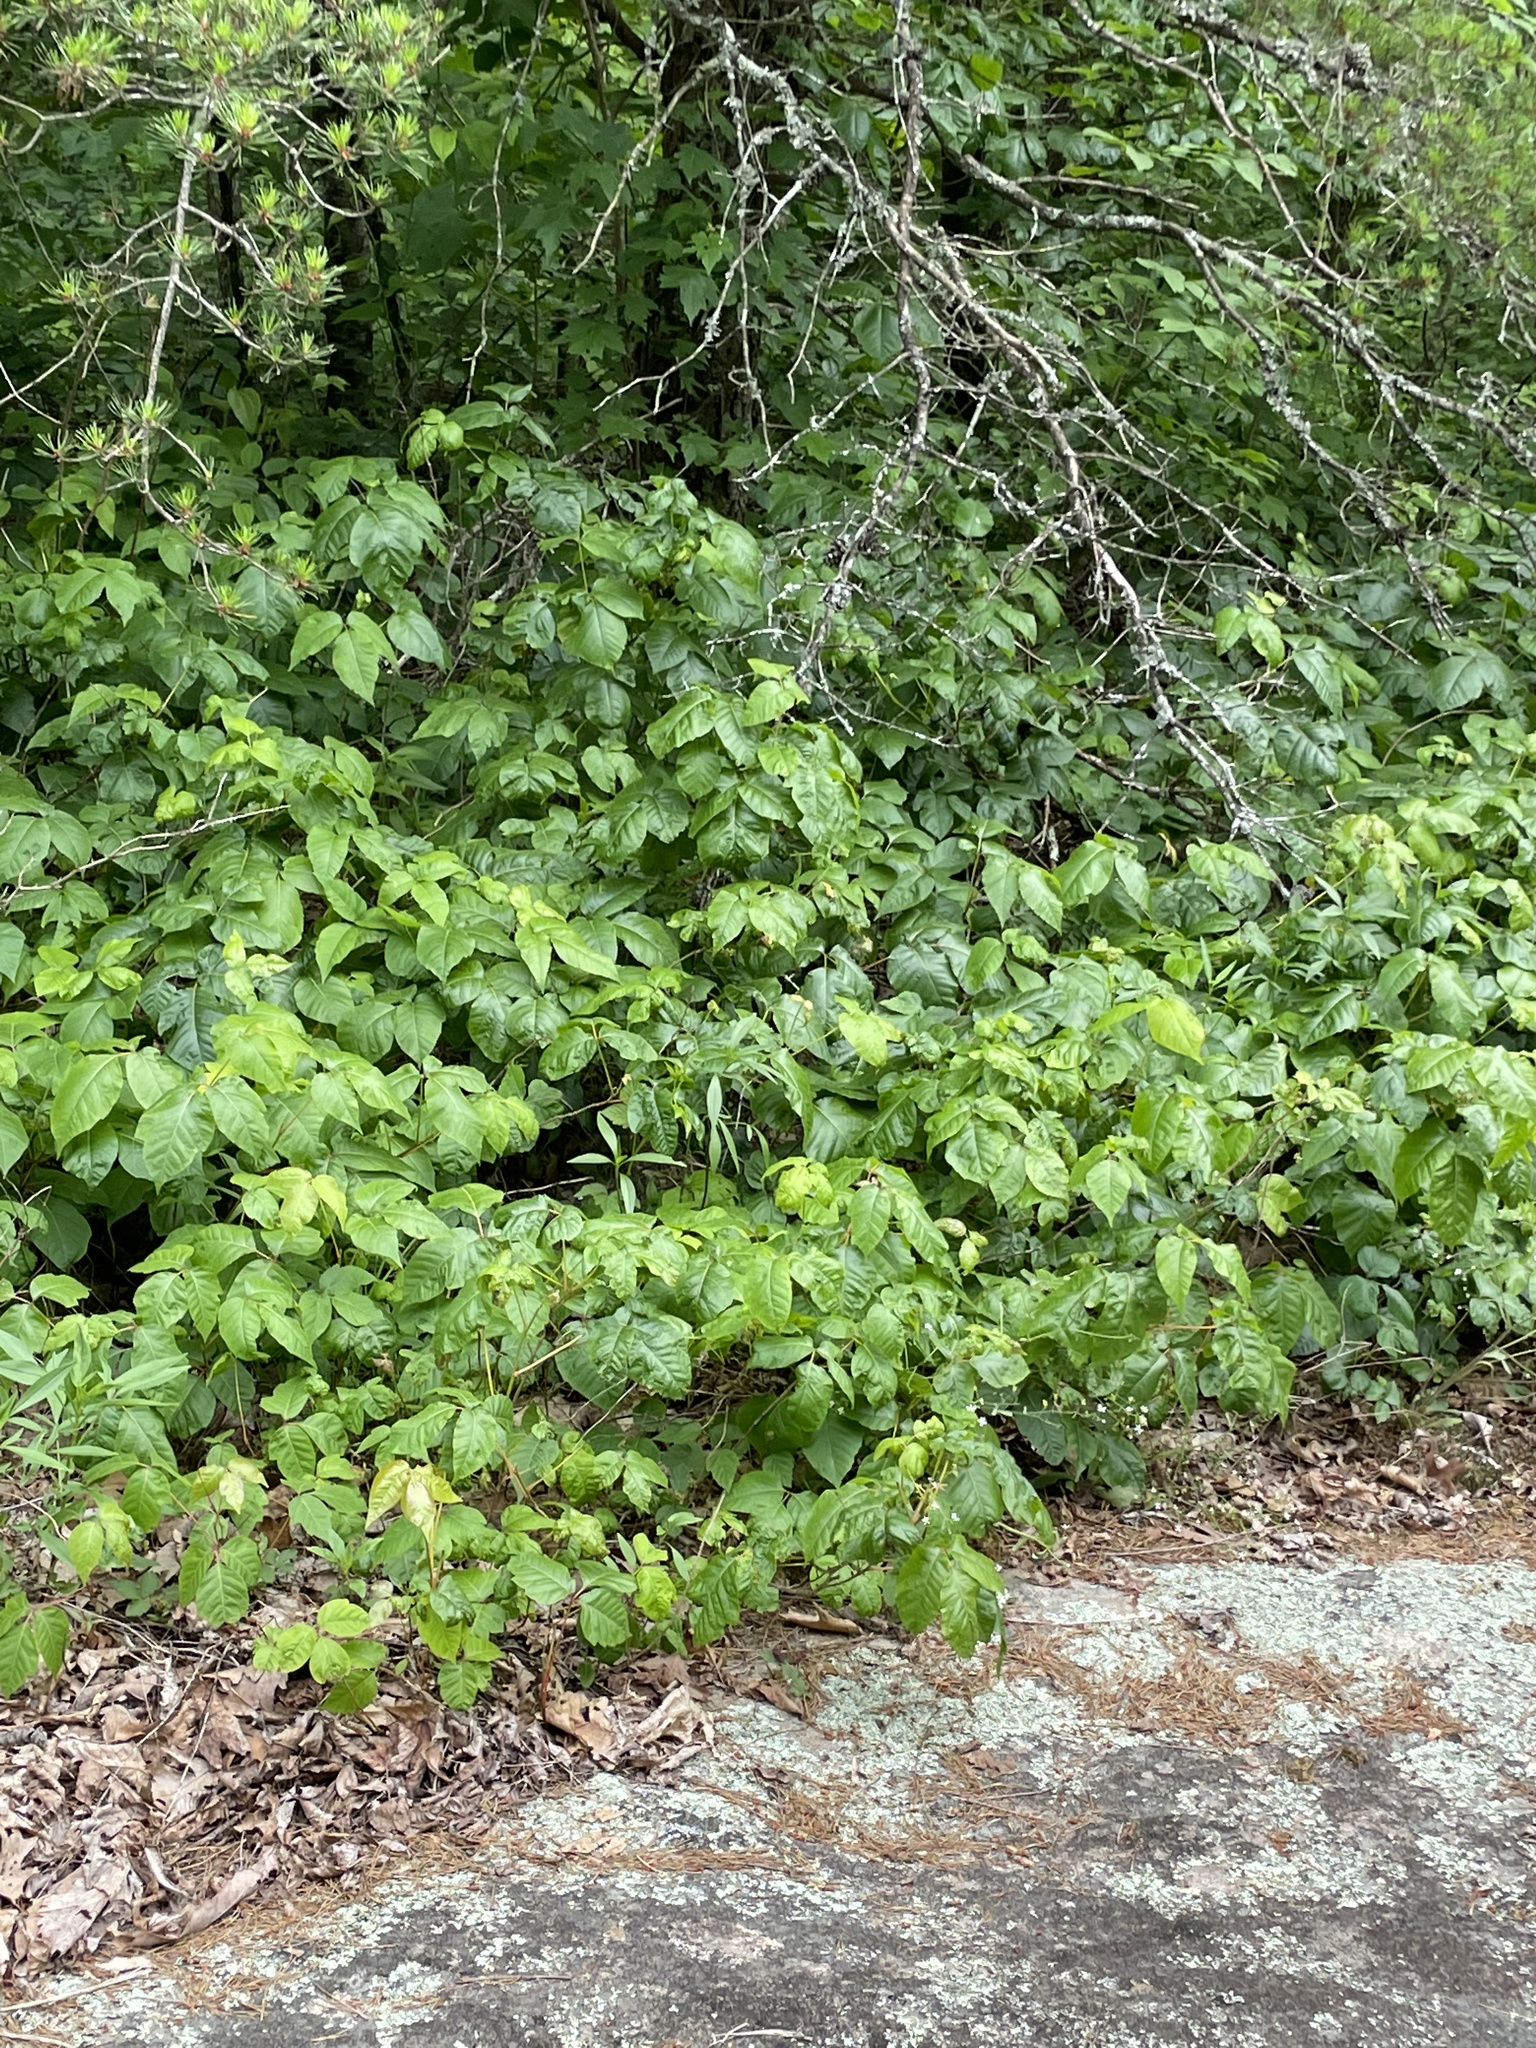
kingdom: Plantae
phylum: Tracheophyta
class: Magnoliopsida
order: Sapindales
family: Anacardiaceae
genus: Toxicodendron
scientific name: Toxicodendron radicans
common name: Poison ivy
